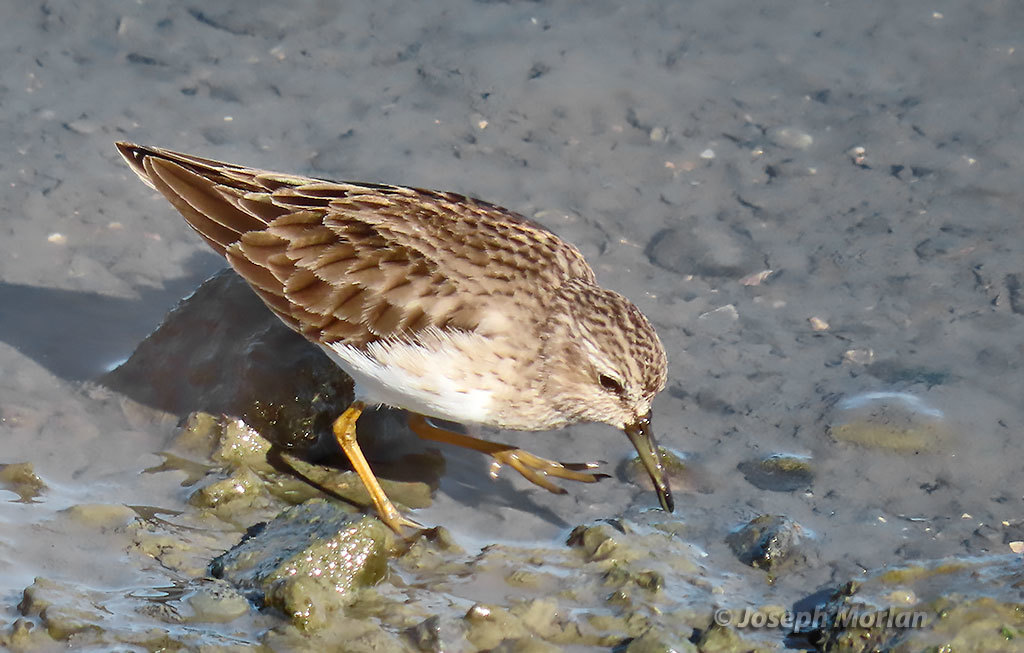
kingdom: Animalia
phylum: Chordata
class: Aves
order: Charadriiformes
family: Scolopacidae
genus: Calidris
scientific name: Calidris minutilla
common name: Least sandpiper
